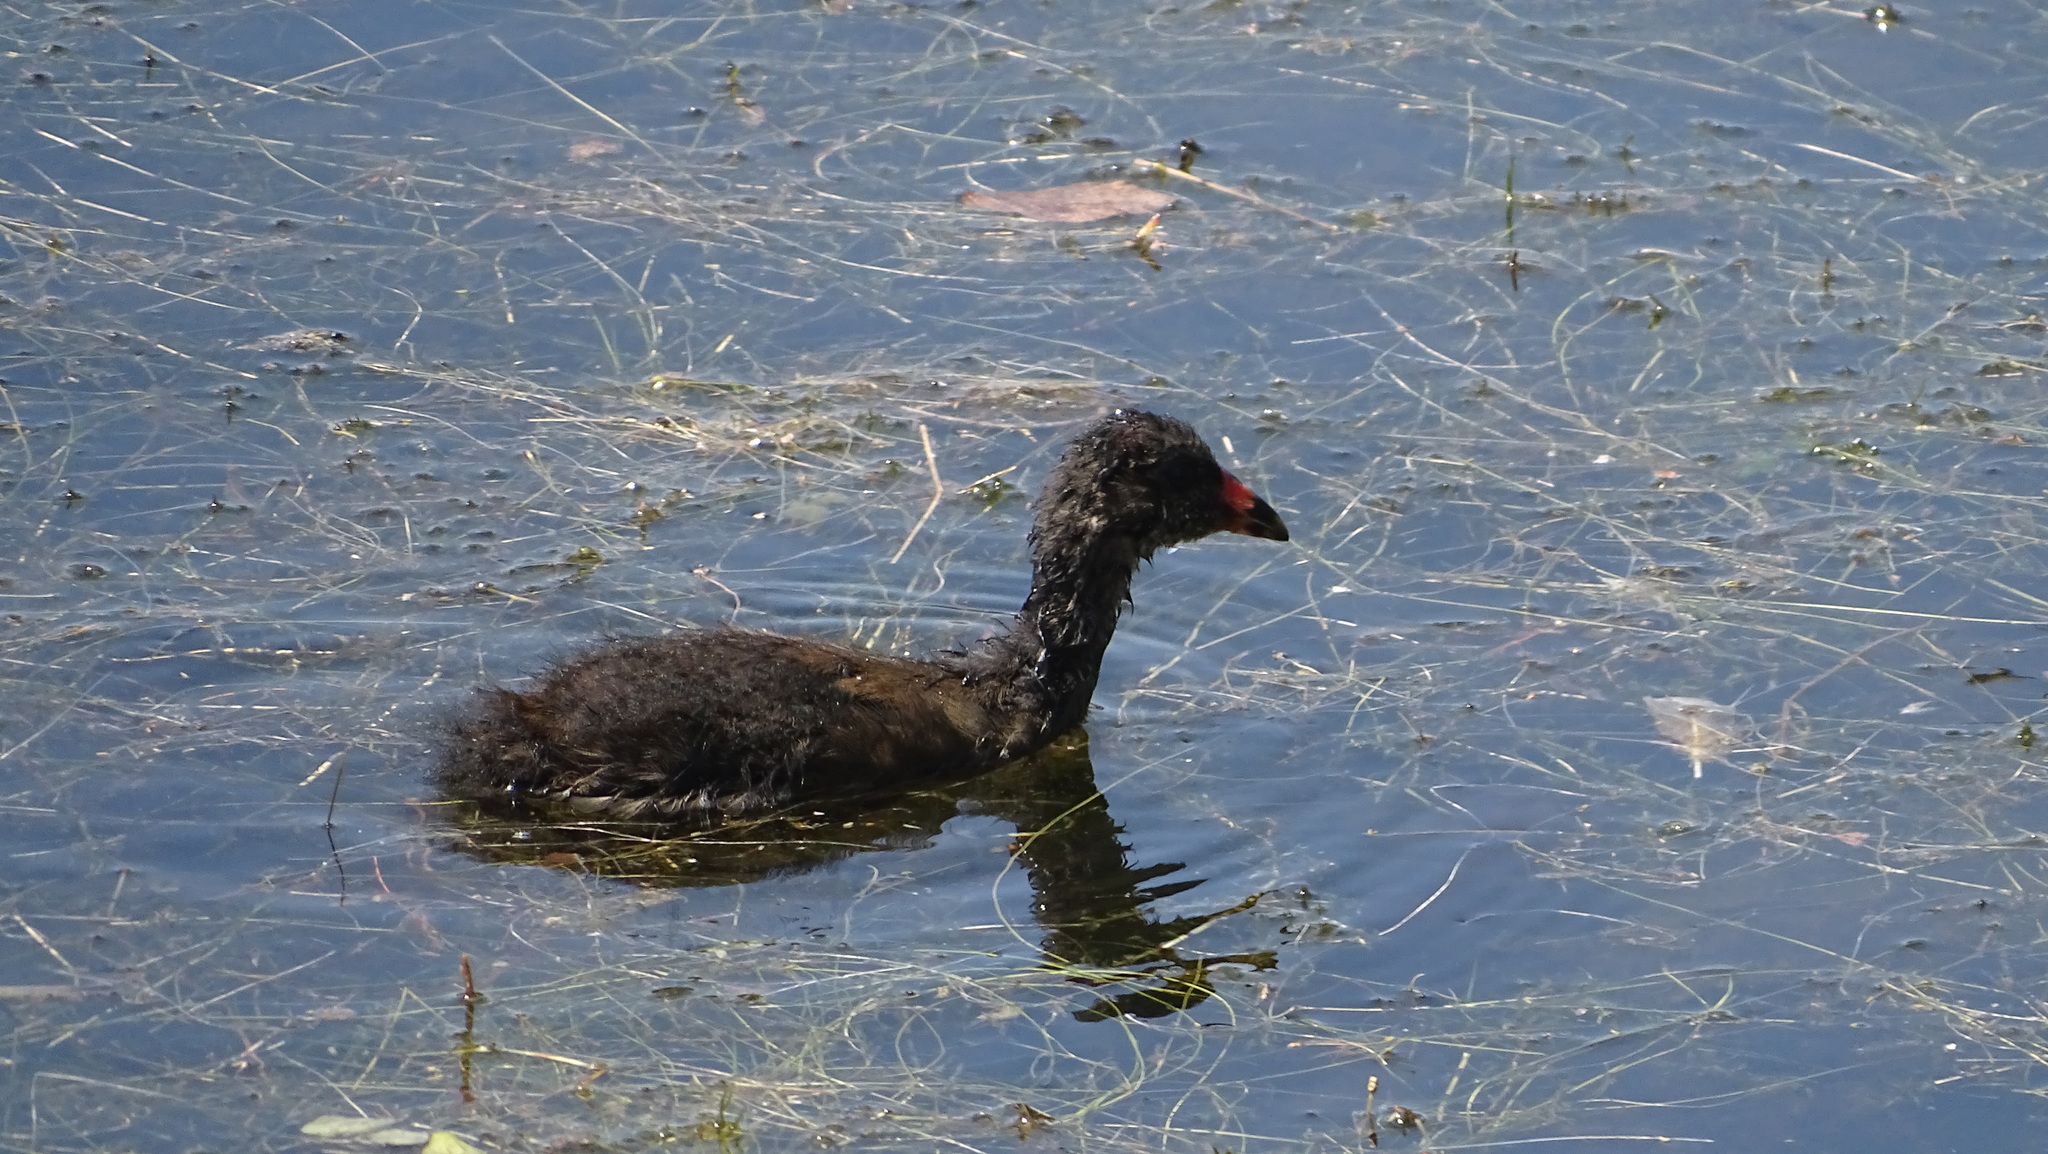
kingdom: Animalia
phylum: Chordata
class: Aves
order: Gruiformes
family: Rallidae
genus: Gallinula
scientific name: Gallinula chloropus
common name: Common moorhen
